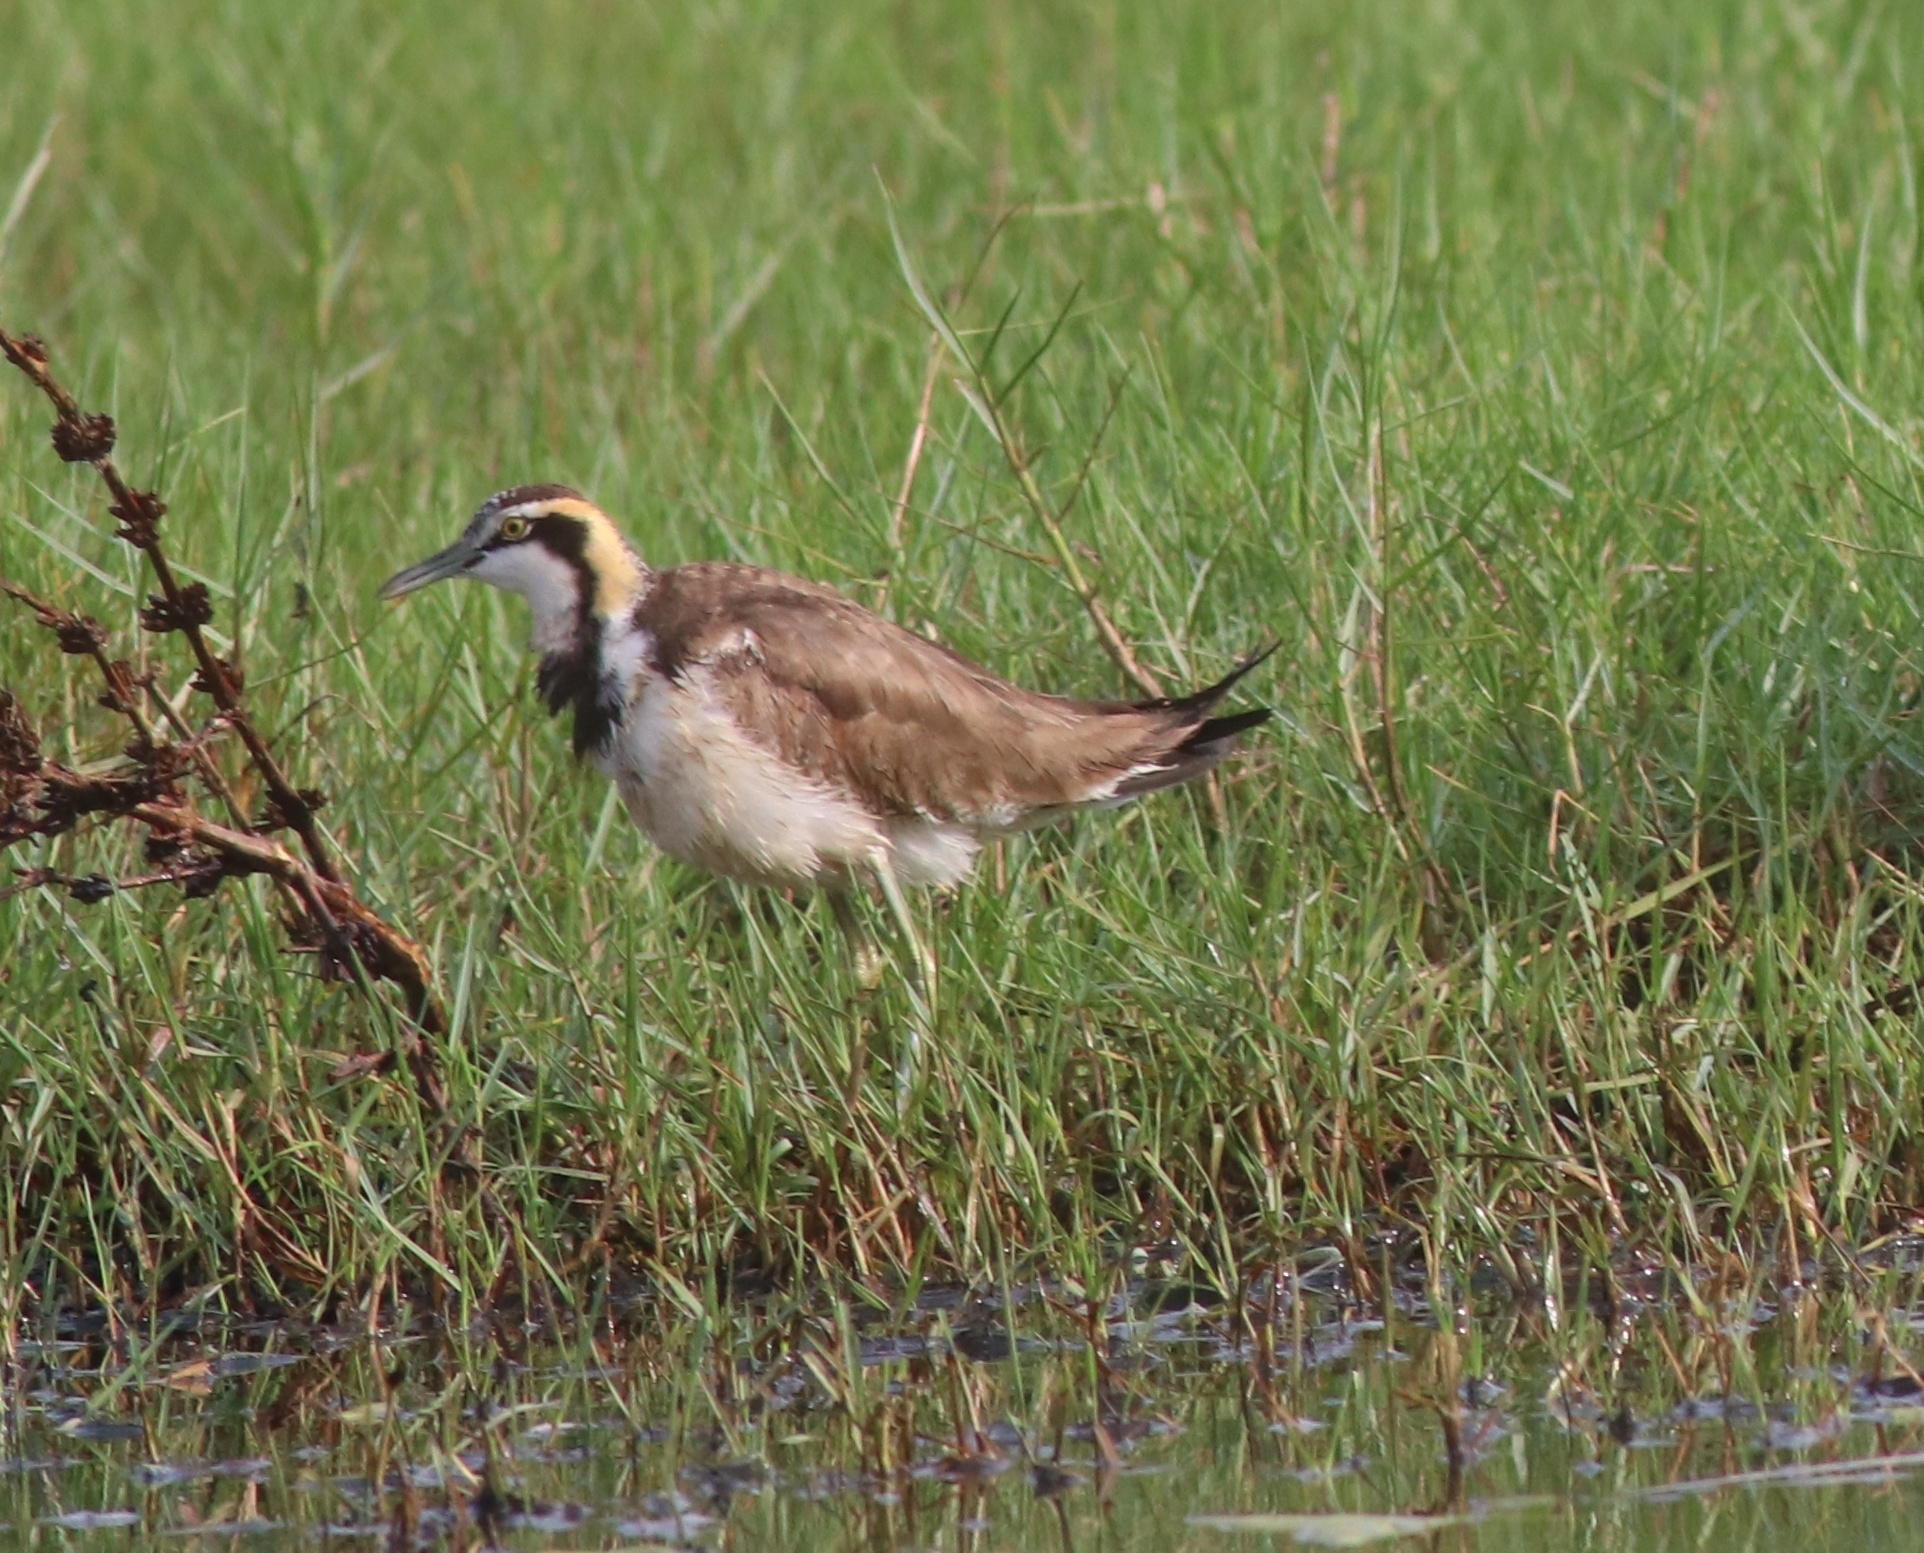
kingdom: Animalia
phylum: Chordata
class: Aves
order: Charadriiformes
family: Jacanidae
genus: Hydrophasianus
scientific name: Hydrophasianus chirurgus
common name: Pheasant-tailed jacana
